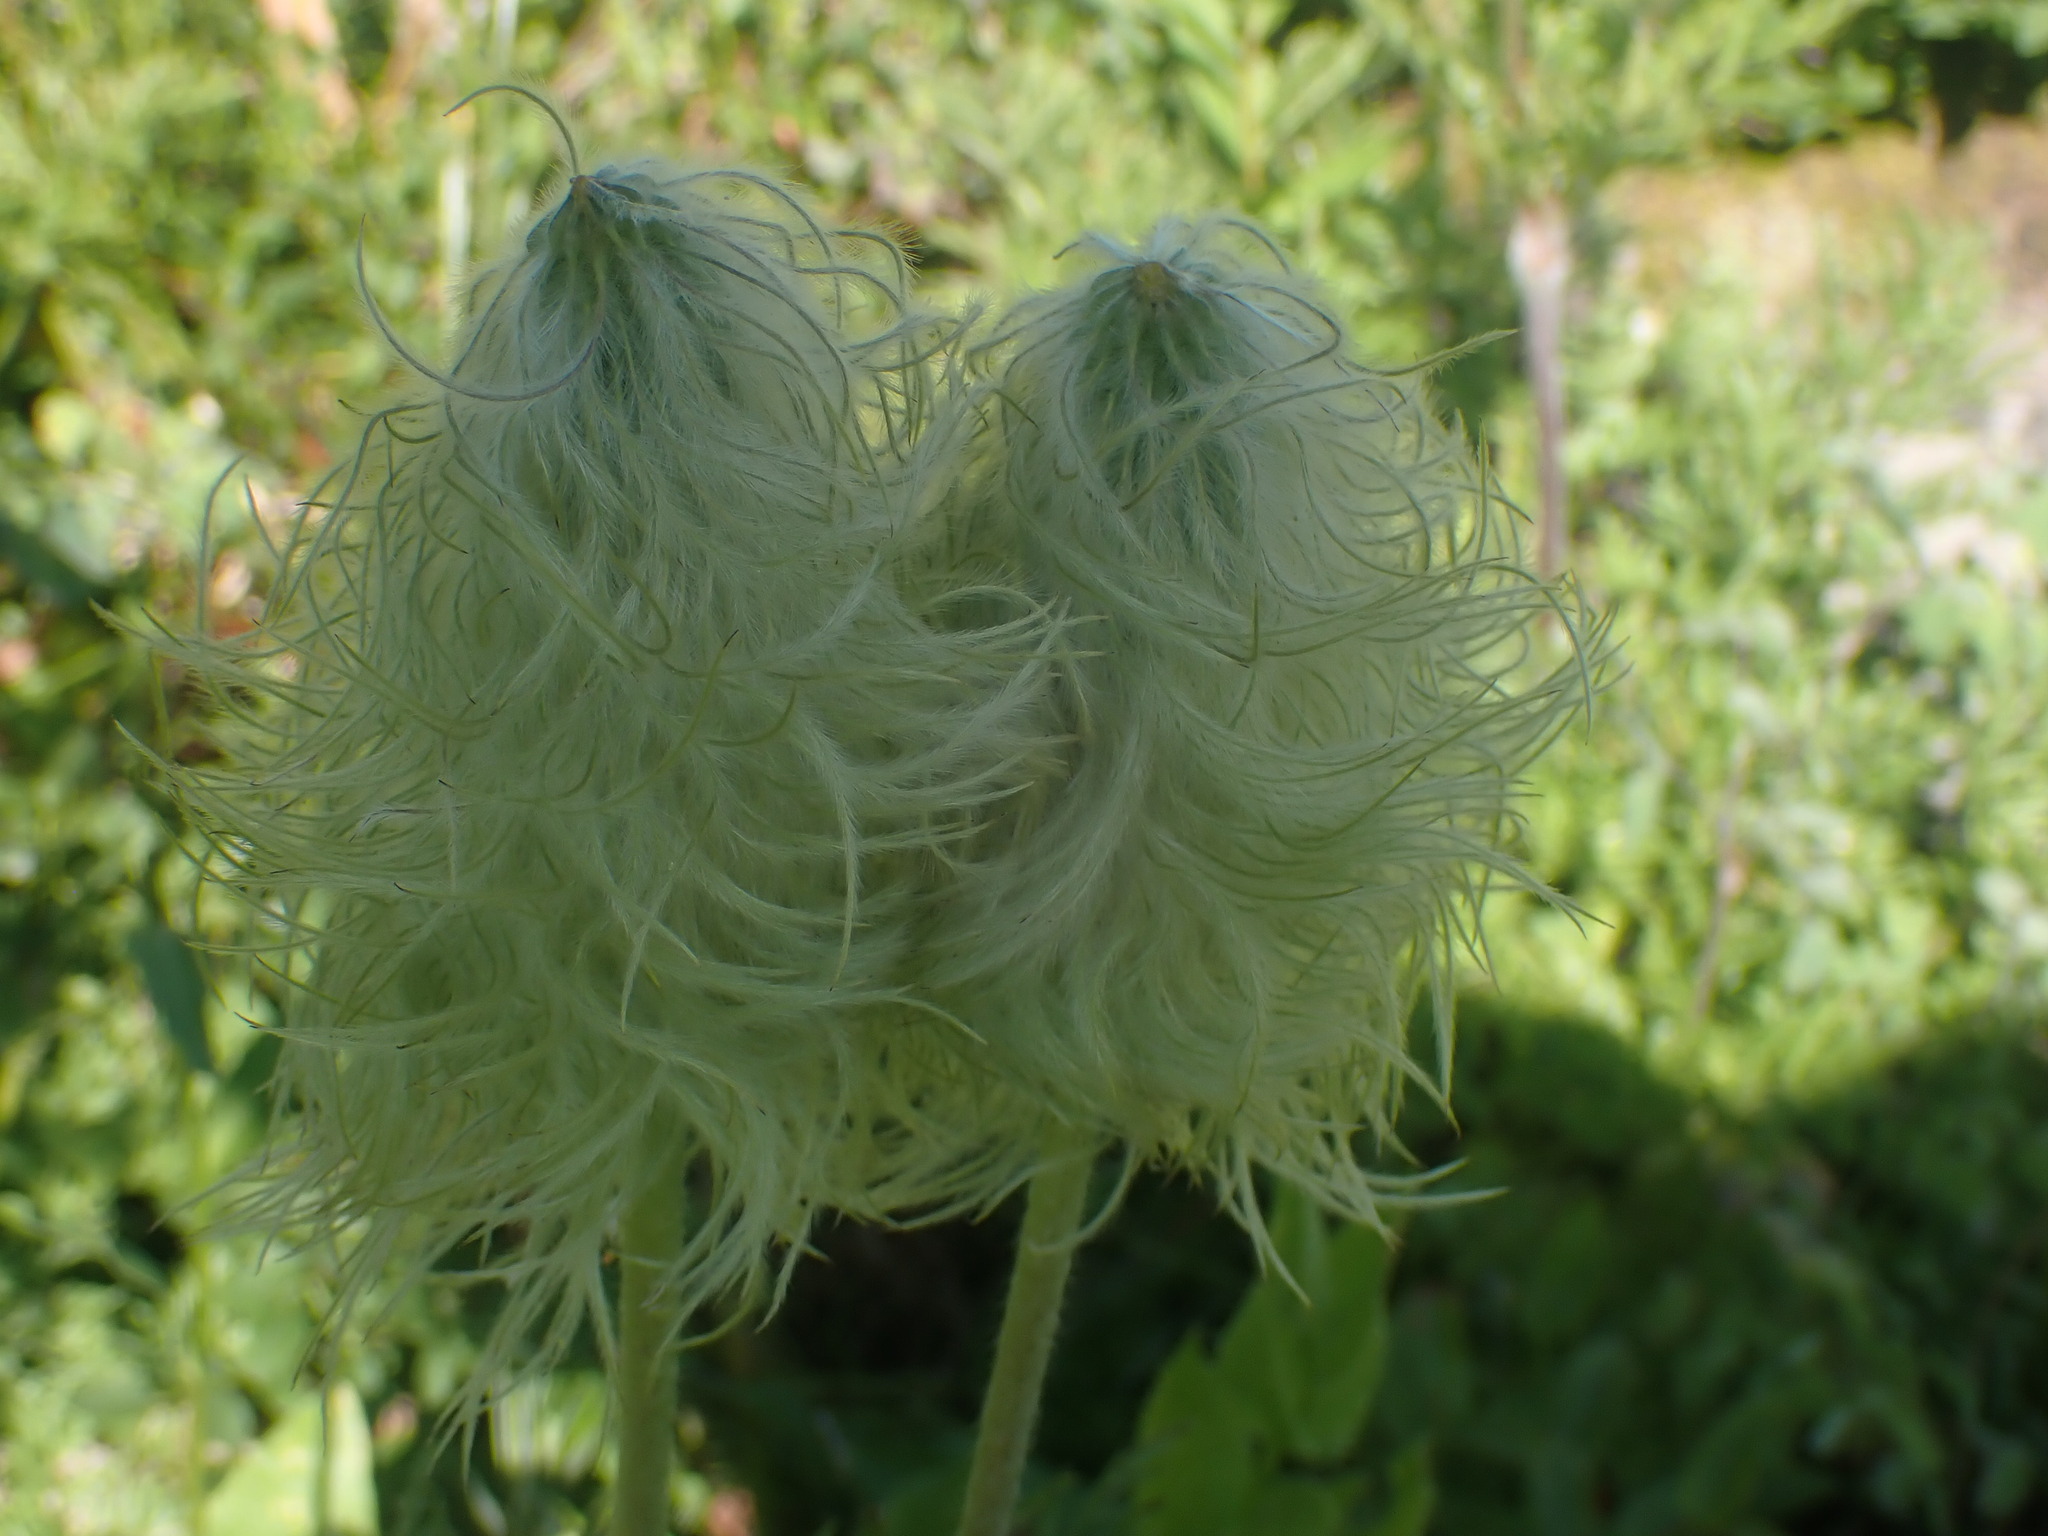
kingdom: Plantae
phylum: Tracheophyta
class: Magnoliopsida
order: Ranunculales
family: Ranunculaceae
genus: Pulsatilla
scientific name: Pulsatilla occidentalis
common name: Mountain pasqueflower
